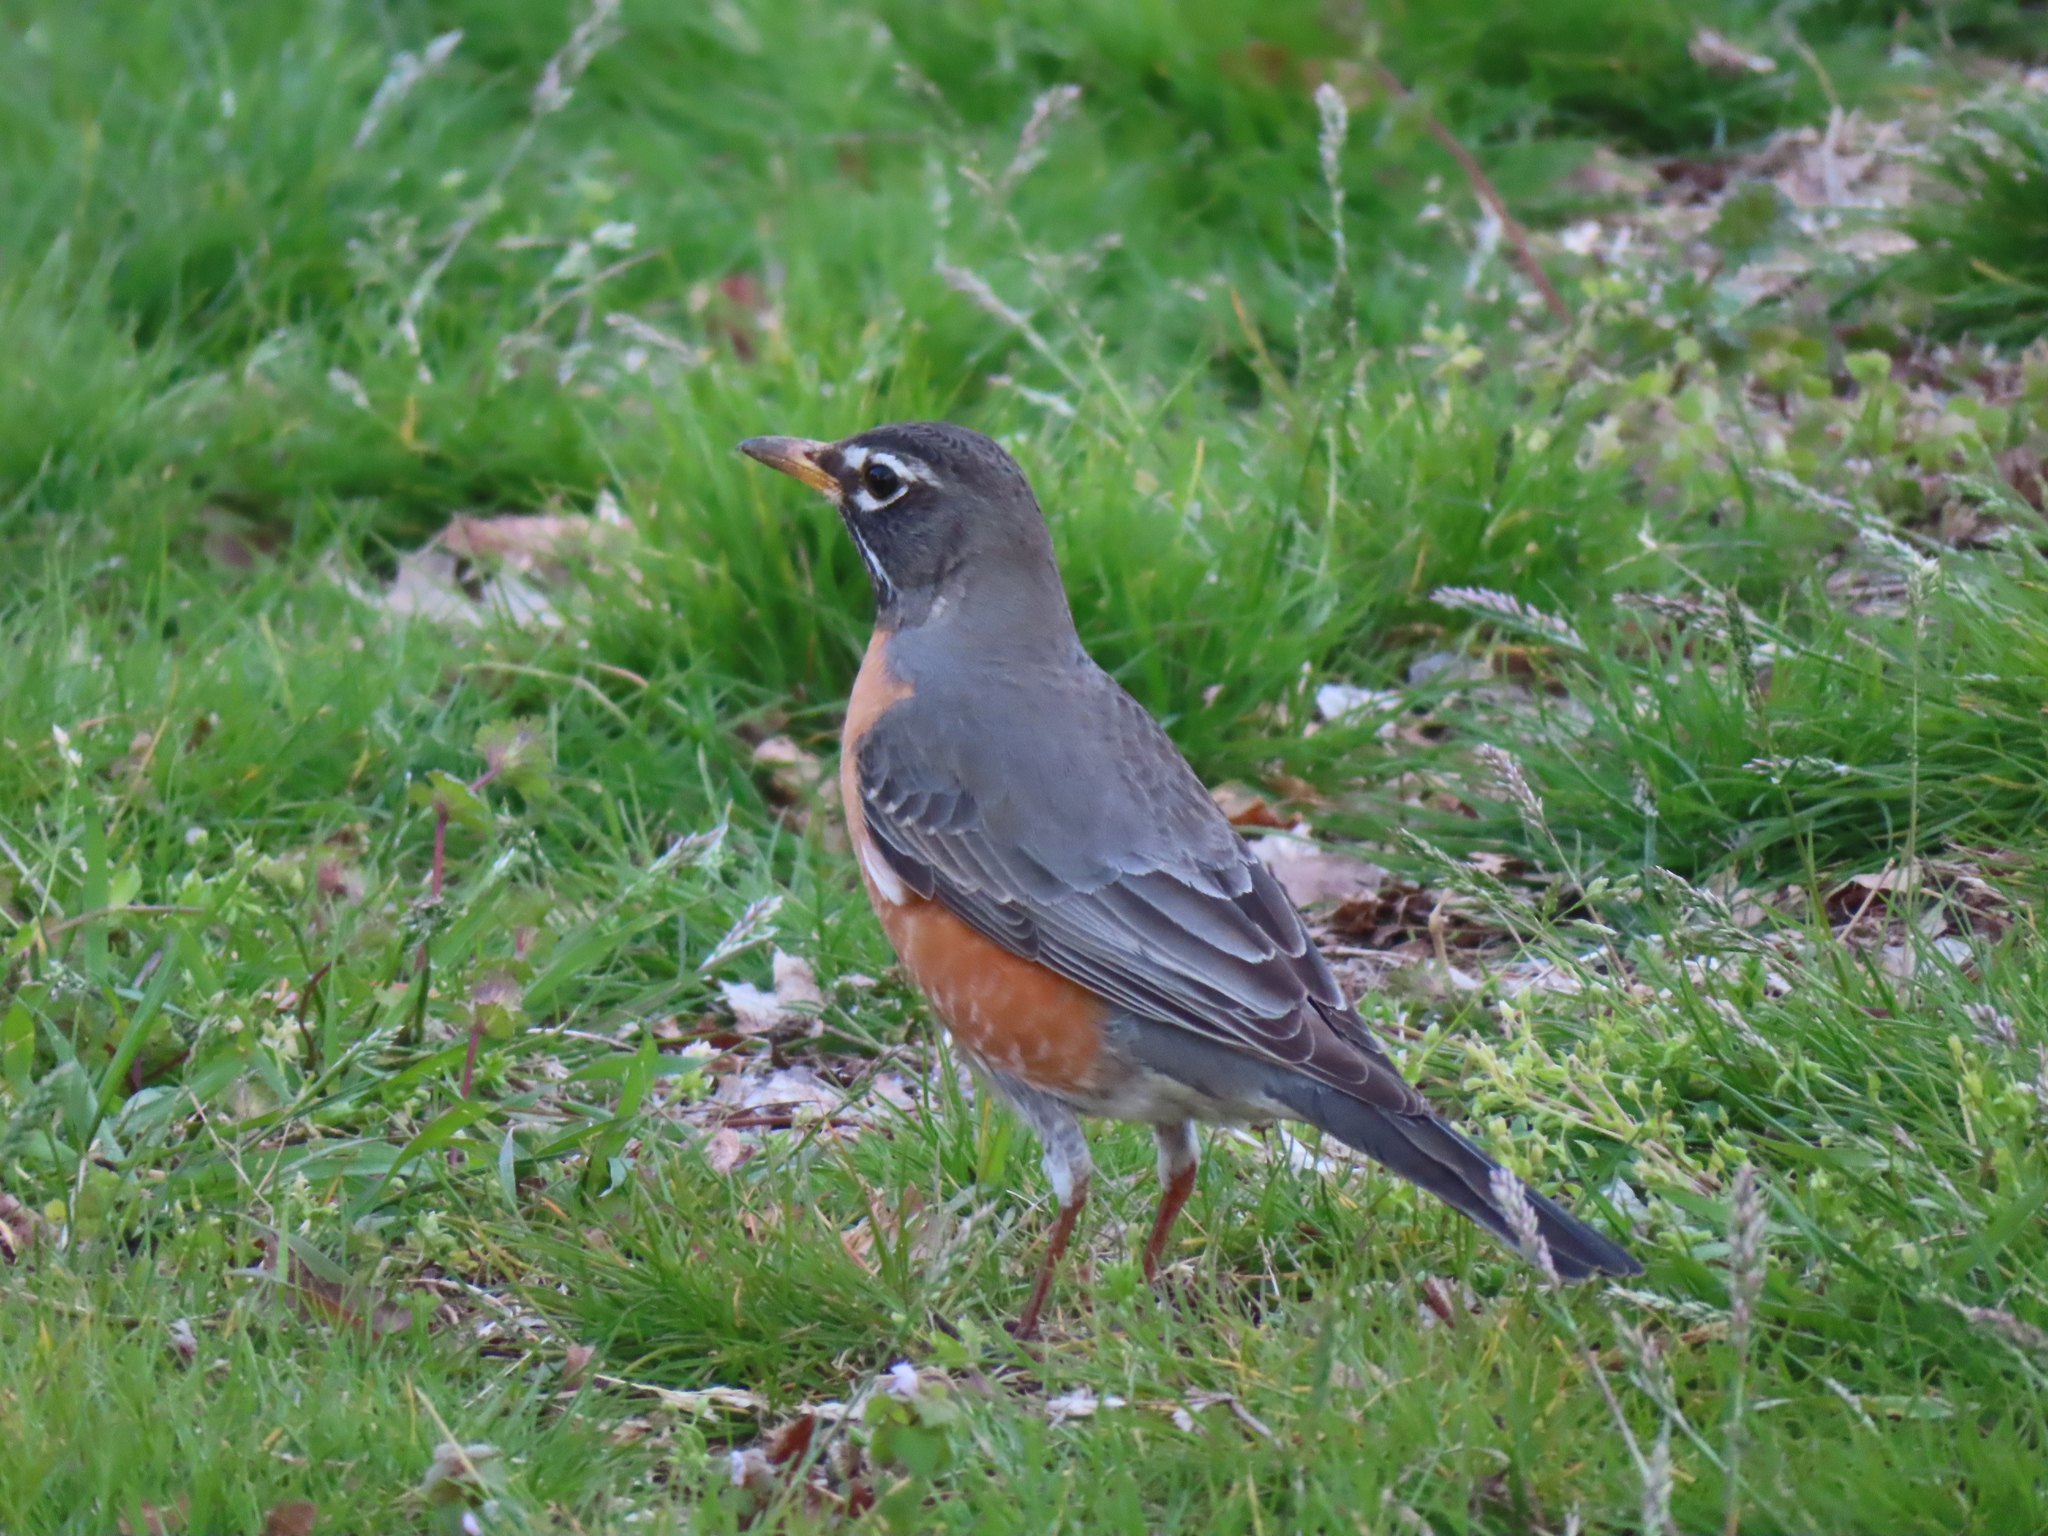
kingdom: Animalia
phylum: Chordata
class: Aves
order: Passeriformes
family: Turdidae
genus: Turdus
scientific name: Turdus migratorius
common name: American robin
